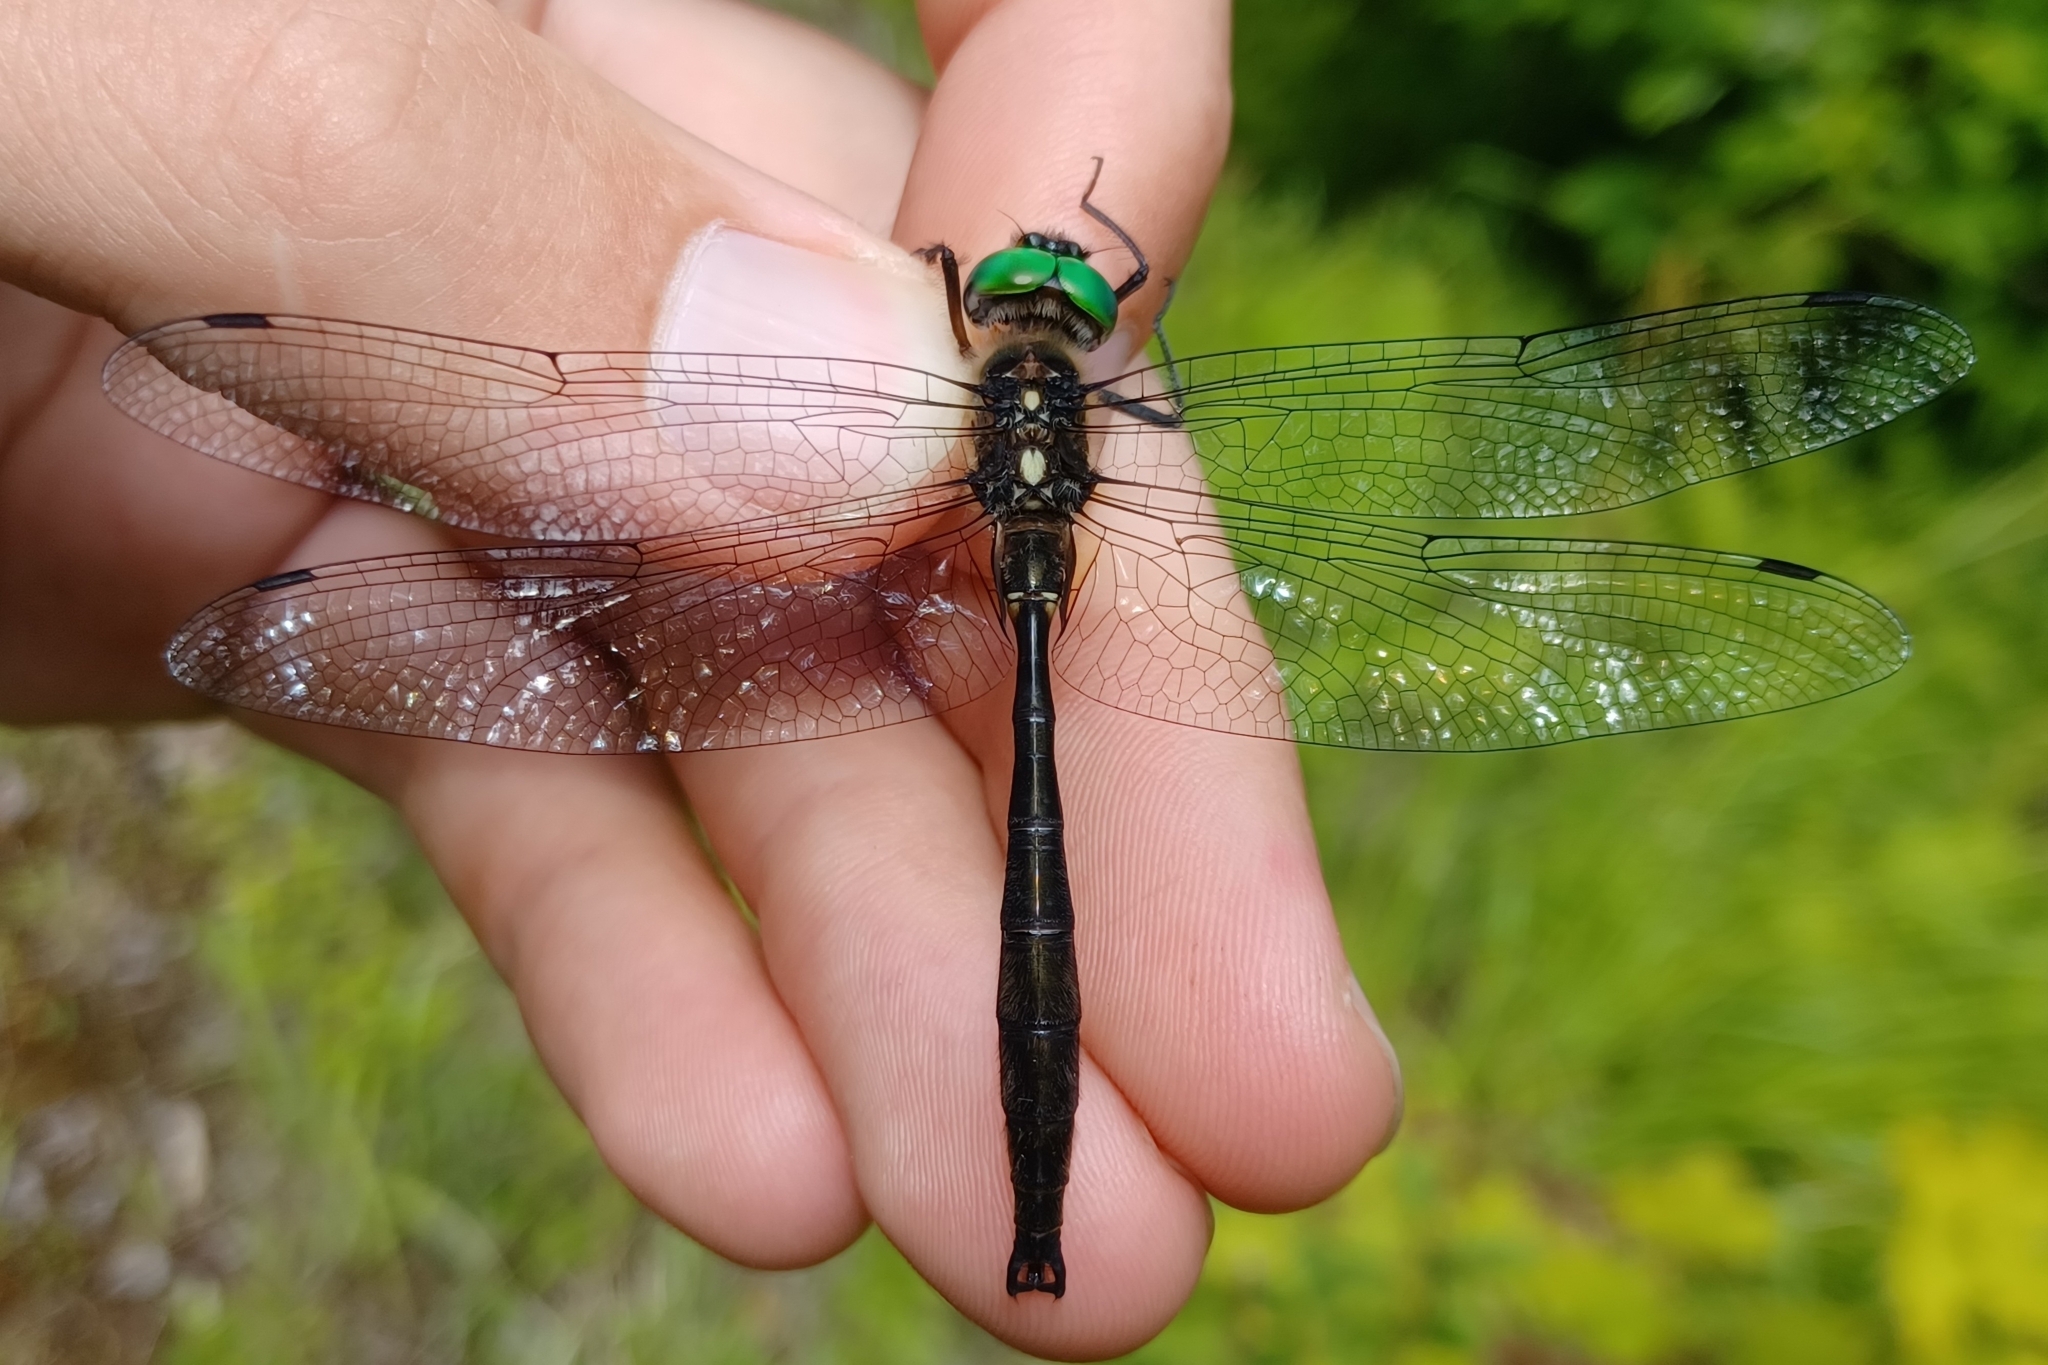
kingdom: Animalia
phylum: Arthropoda
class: Insecta
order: Odonata
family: Corduliidae
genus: Somatochlora
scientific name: Somatochlora tenebrosa
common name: Clamp-tipped emerald
